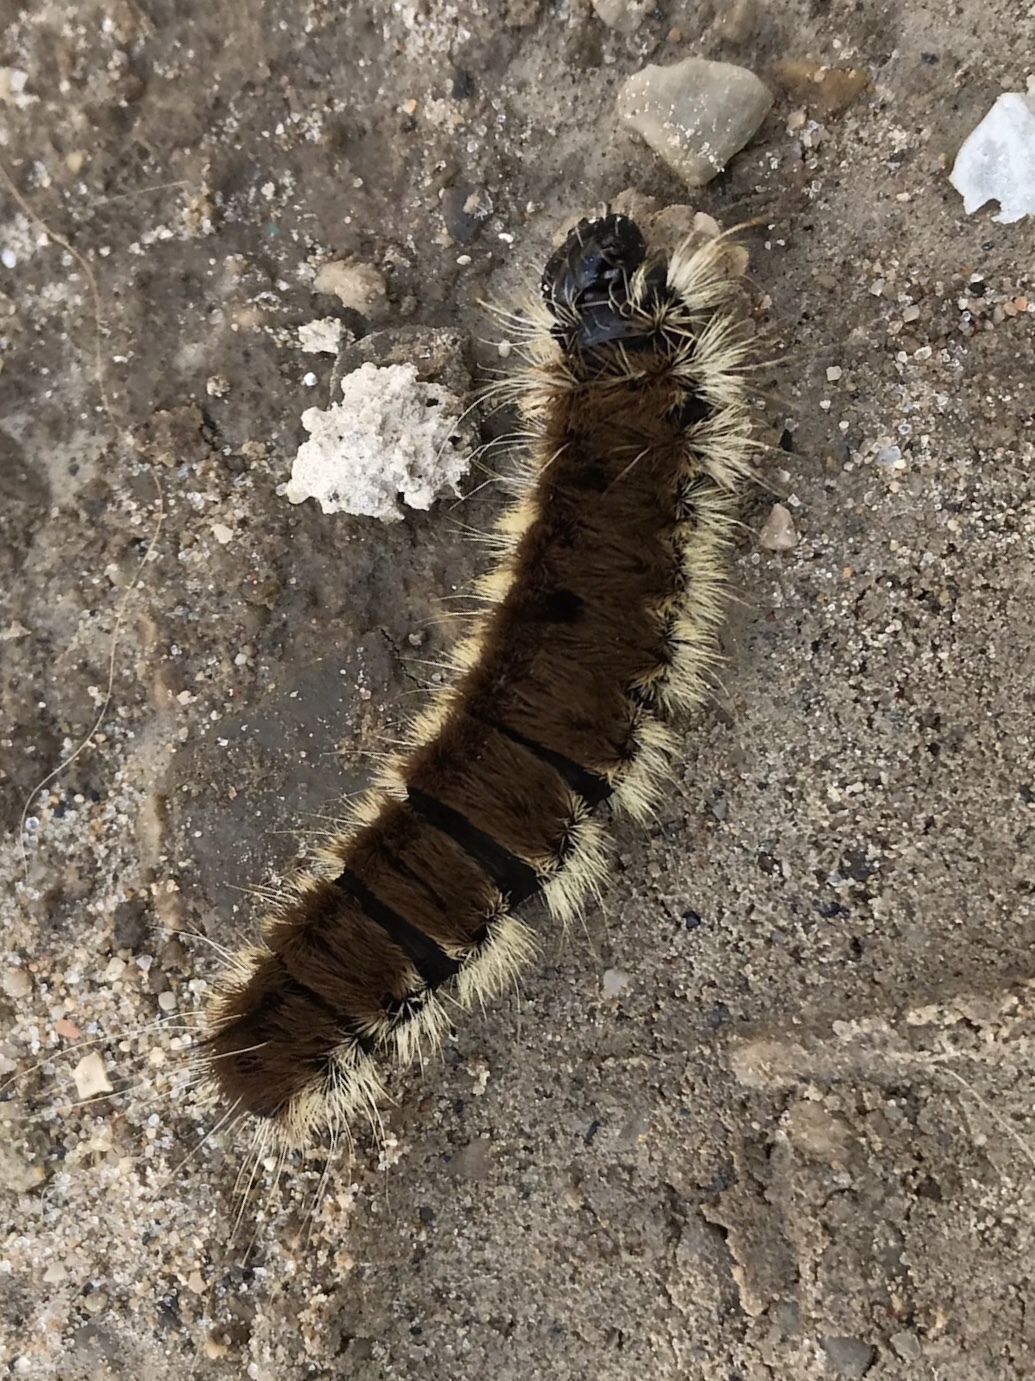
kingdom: Animalia
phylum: Arthropoda
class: Insecta
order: Lepidoptera
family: Noctuidae
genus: Acronicta
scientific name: Acronicta insita
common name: Large gray dagger
